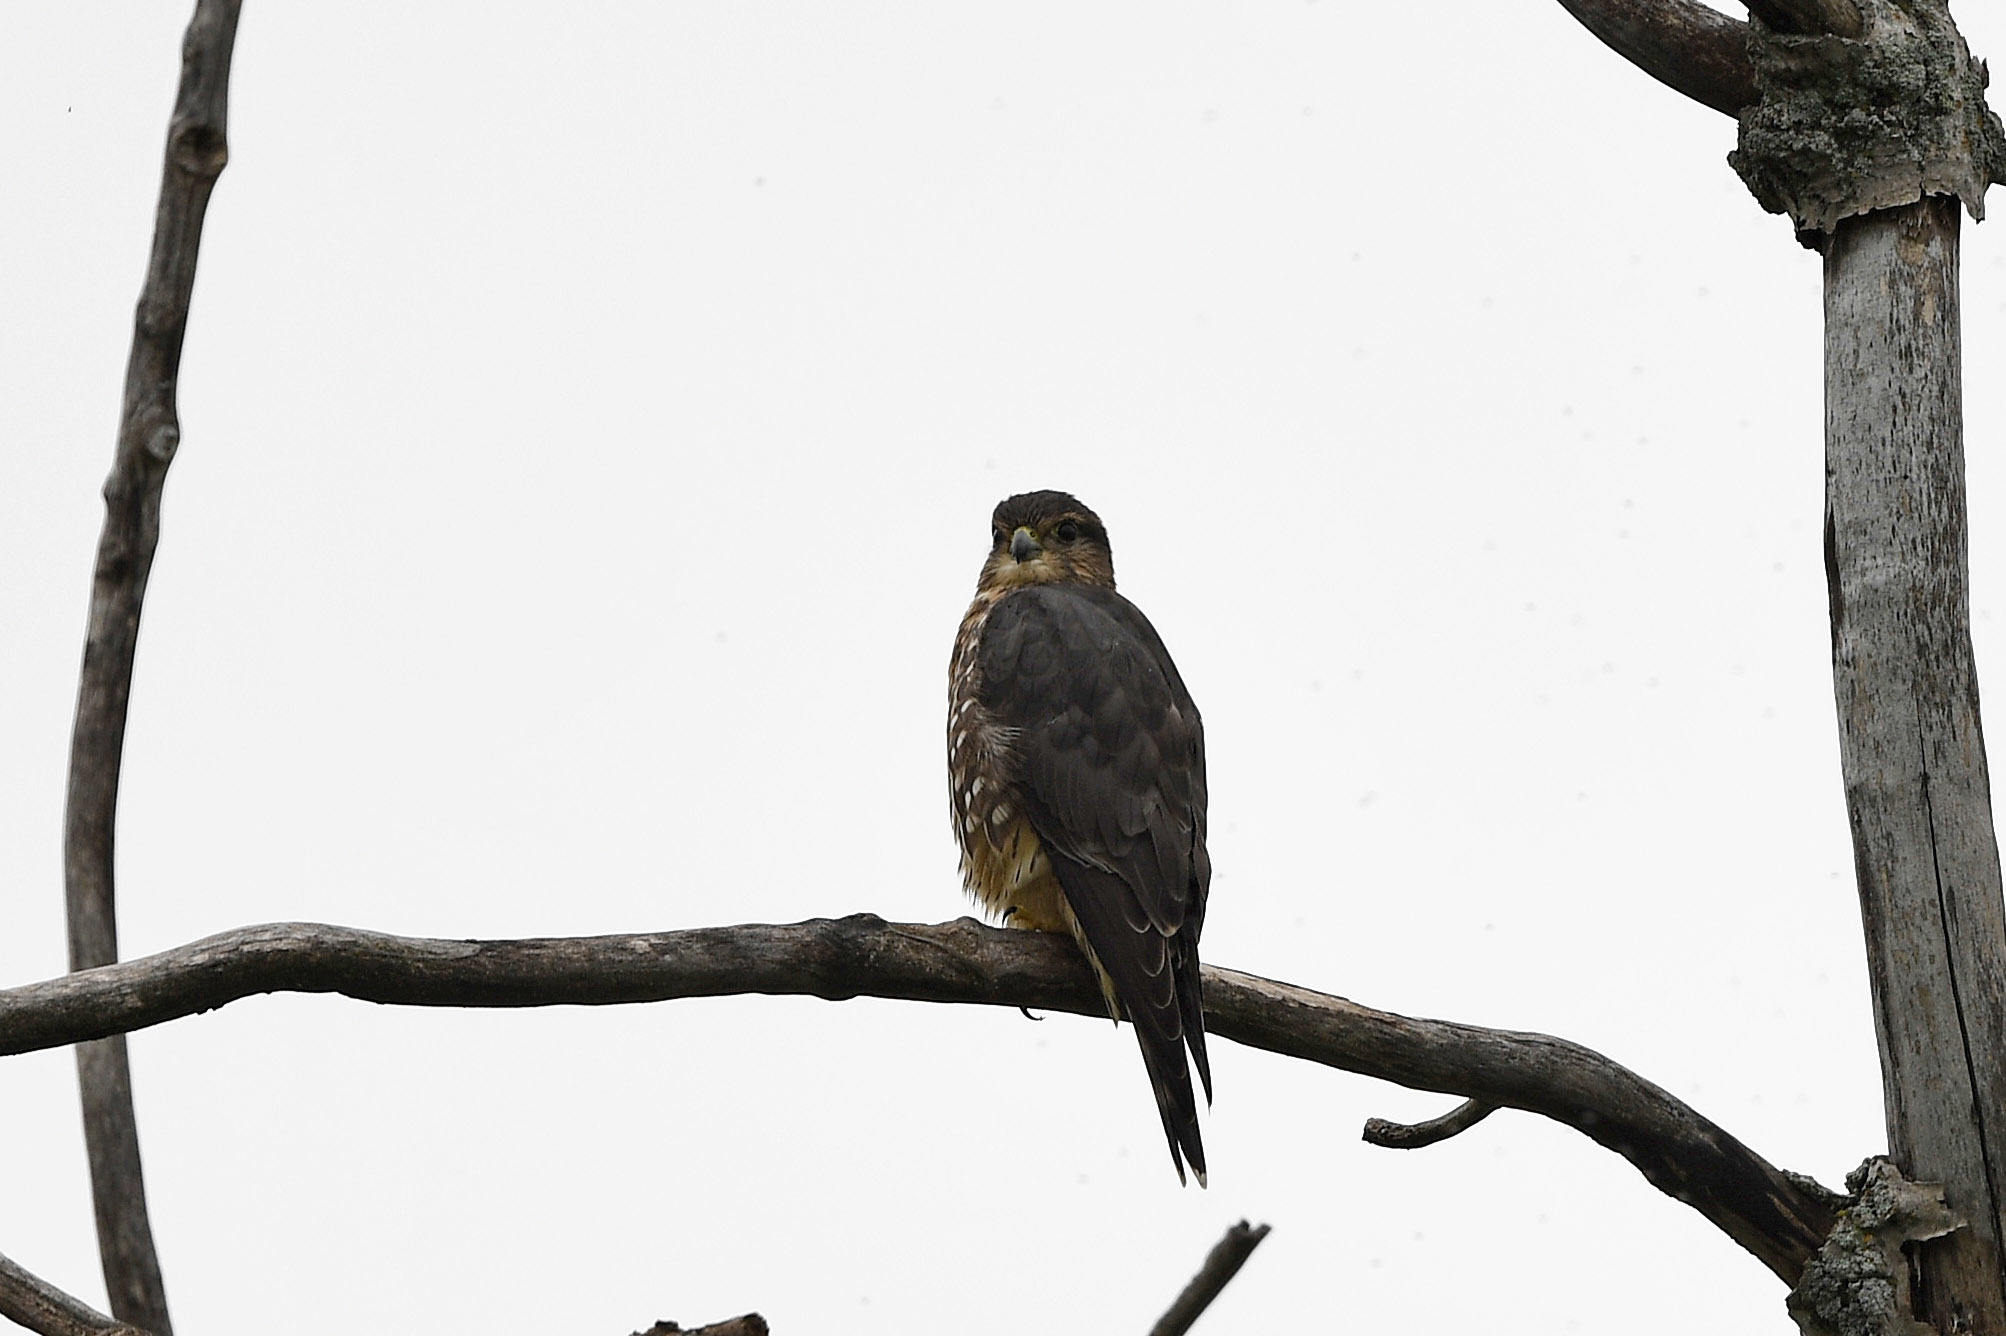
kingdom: Animalia
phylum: Chordata
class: Aves
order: Falconiformes
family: Falconidae
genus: Falco
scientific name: Falco columbarius
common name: Merlin
